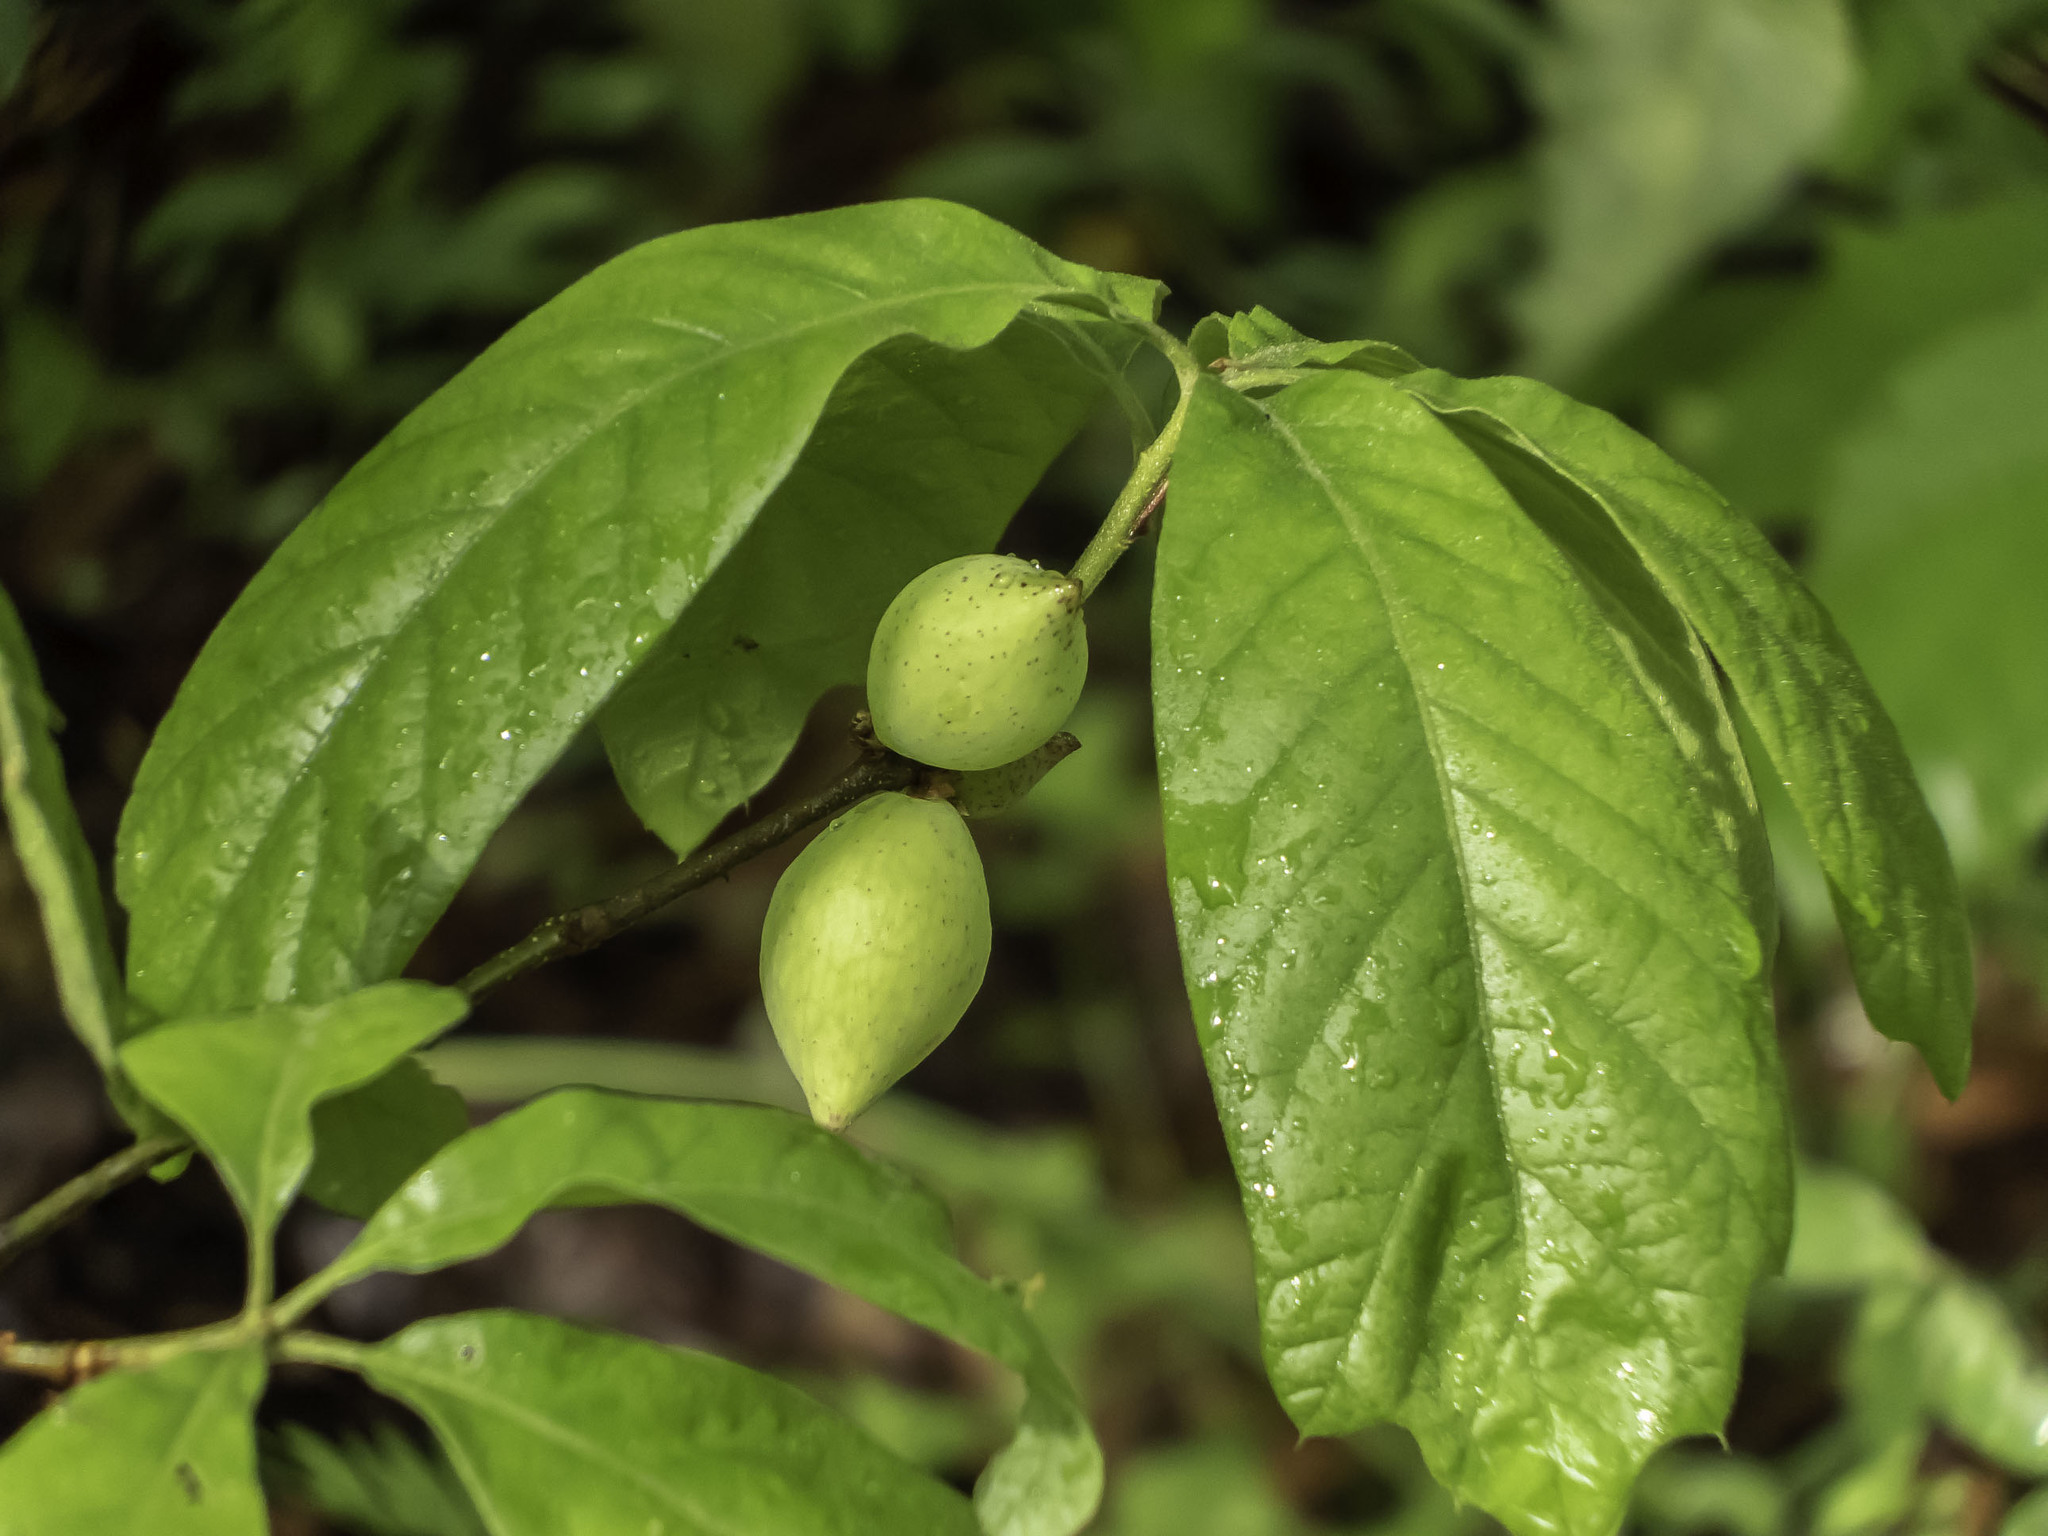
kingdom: Plantae
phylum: Tracheophyta
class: Magnoliopsida
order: Magnoliales
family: Annonaceae
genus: Asimina
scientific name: Asimina triloba
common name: Dog-banana
